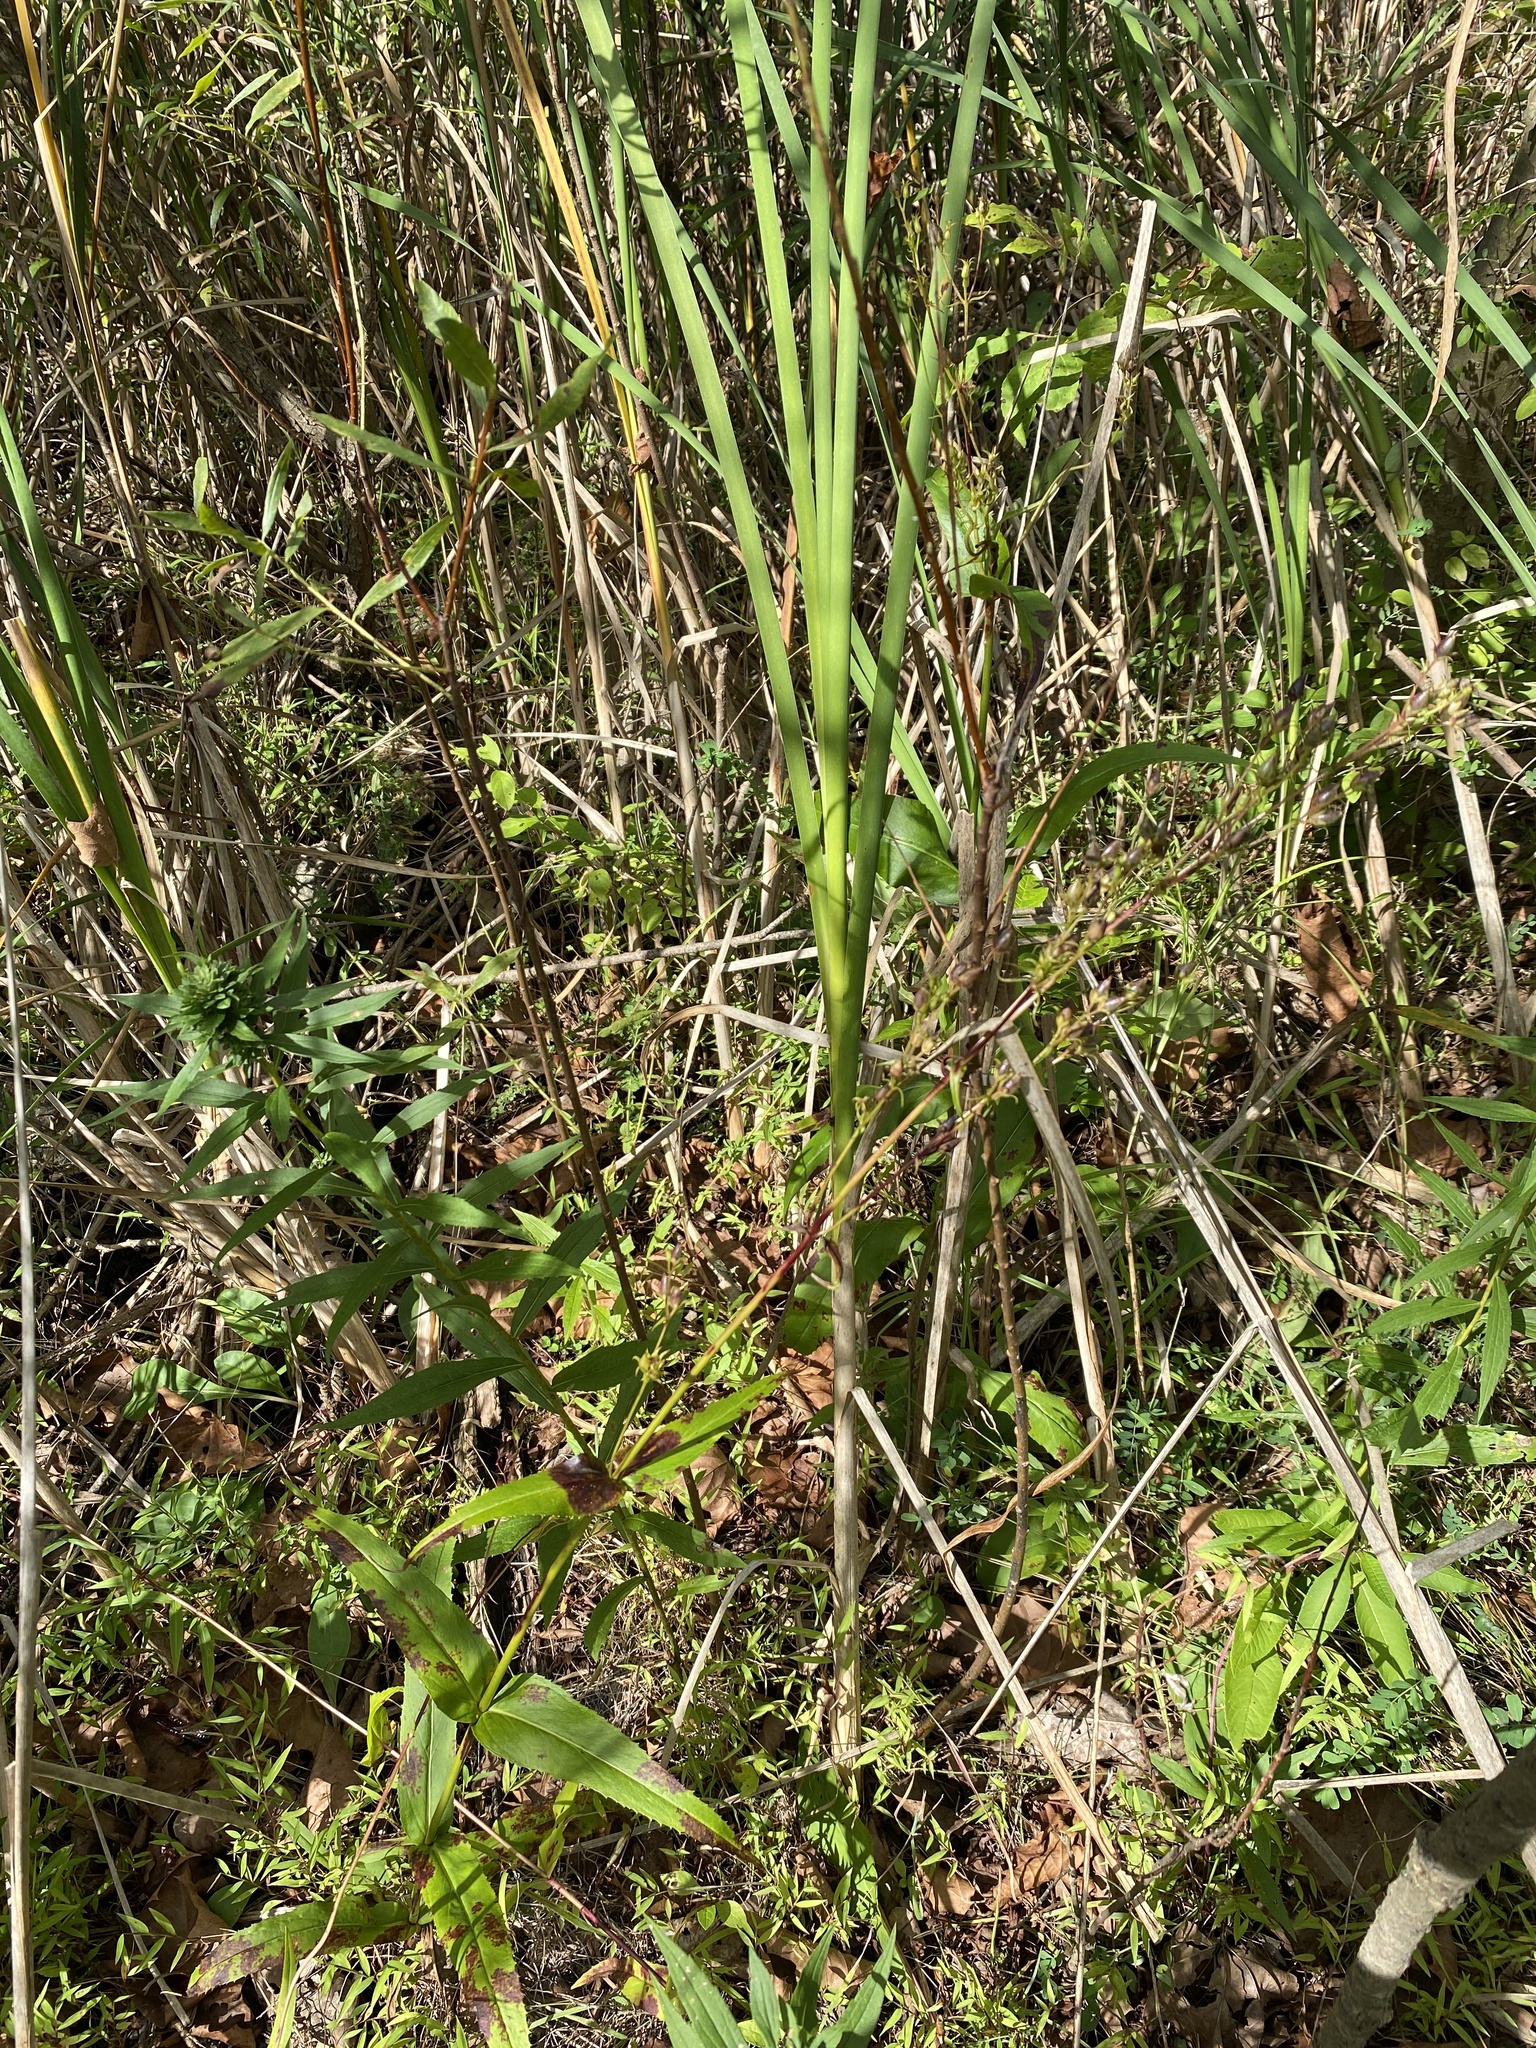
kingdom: Plantae
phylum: Tracheophyta
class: Magnoliopsida
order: Lamiales
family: Plantaginaceae
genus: Penstemon
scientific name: Penstemon digitalis
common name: Foxglove beardtongue
